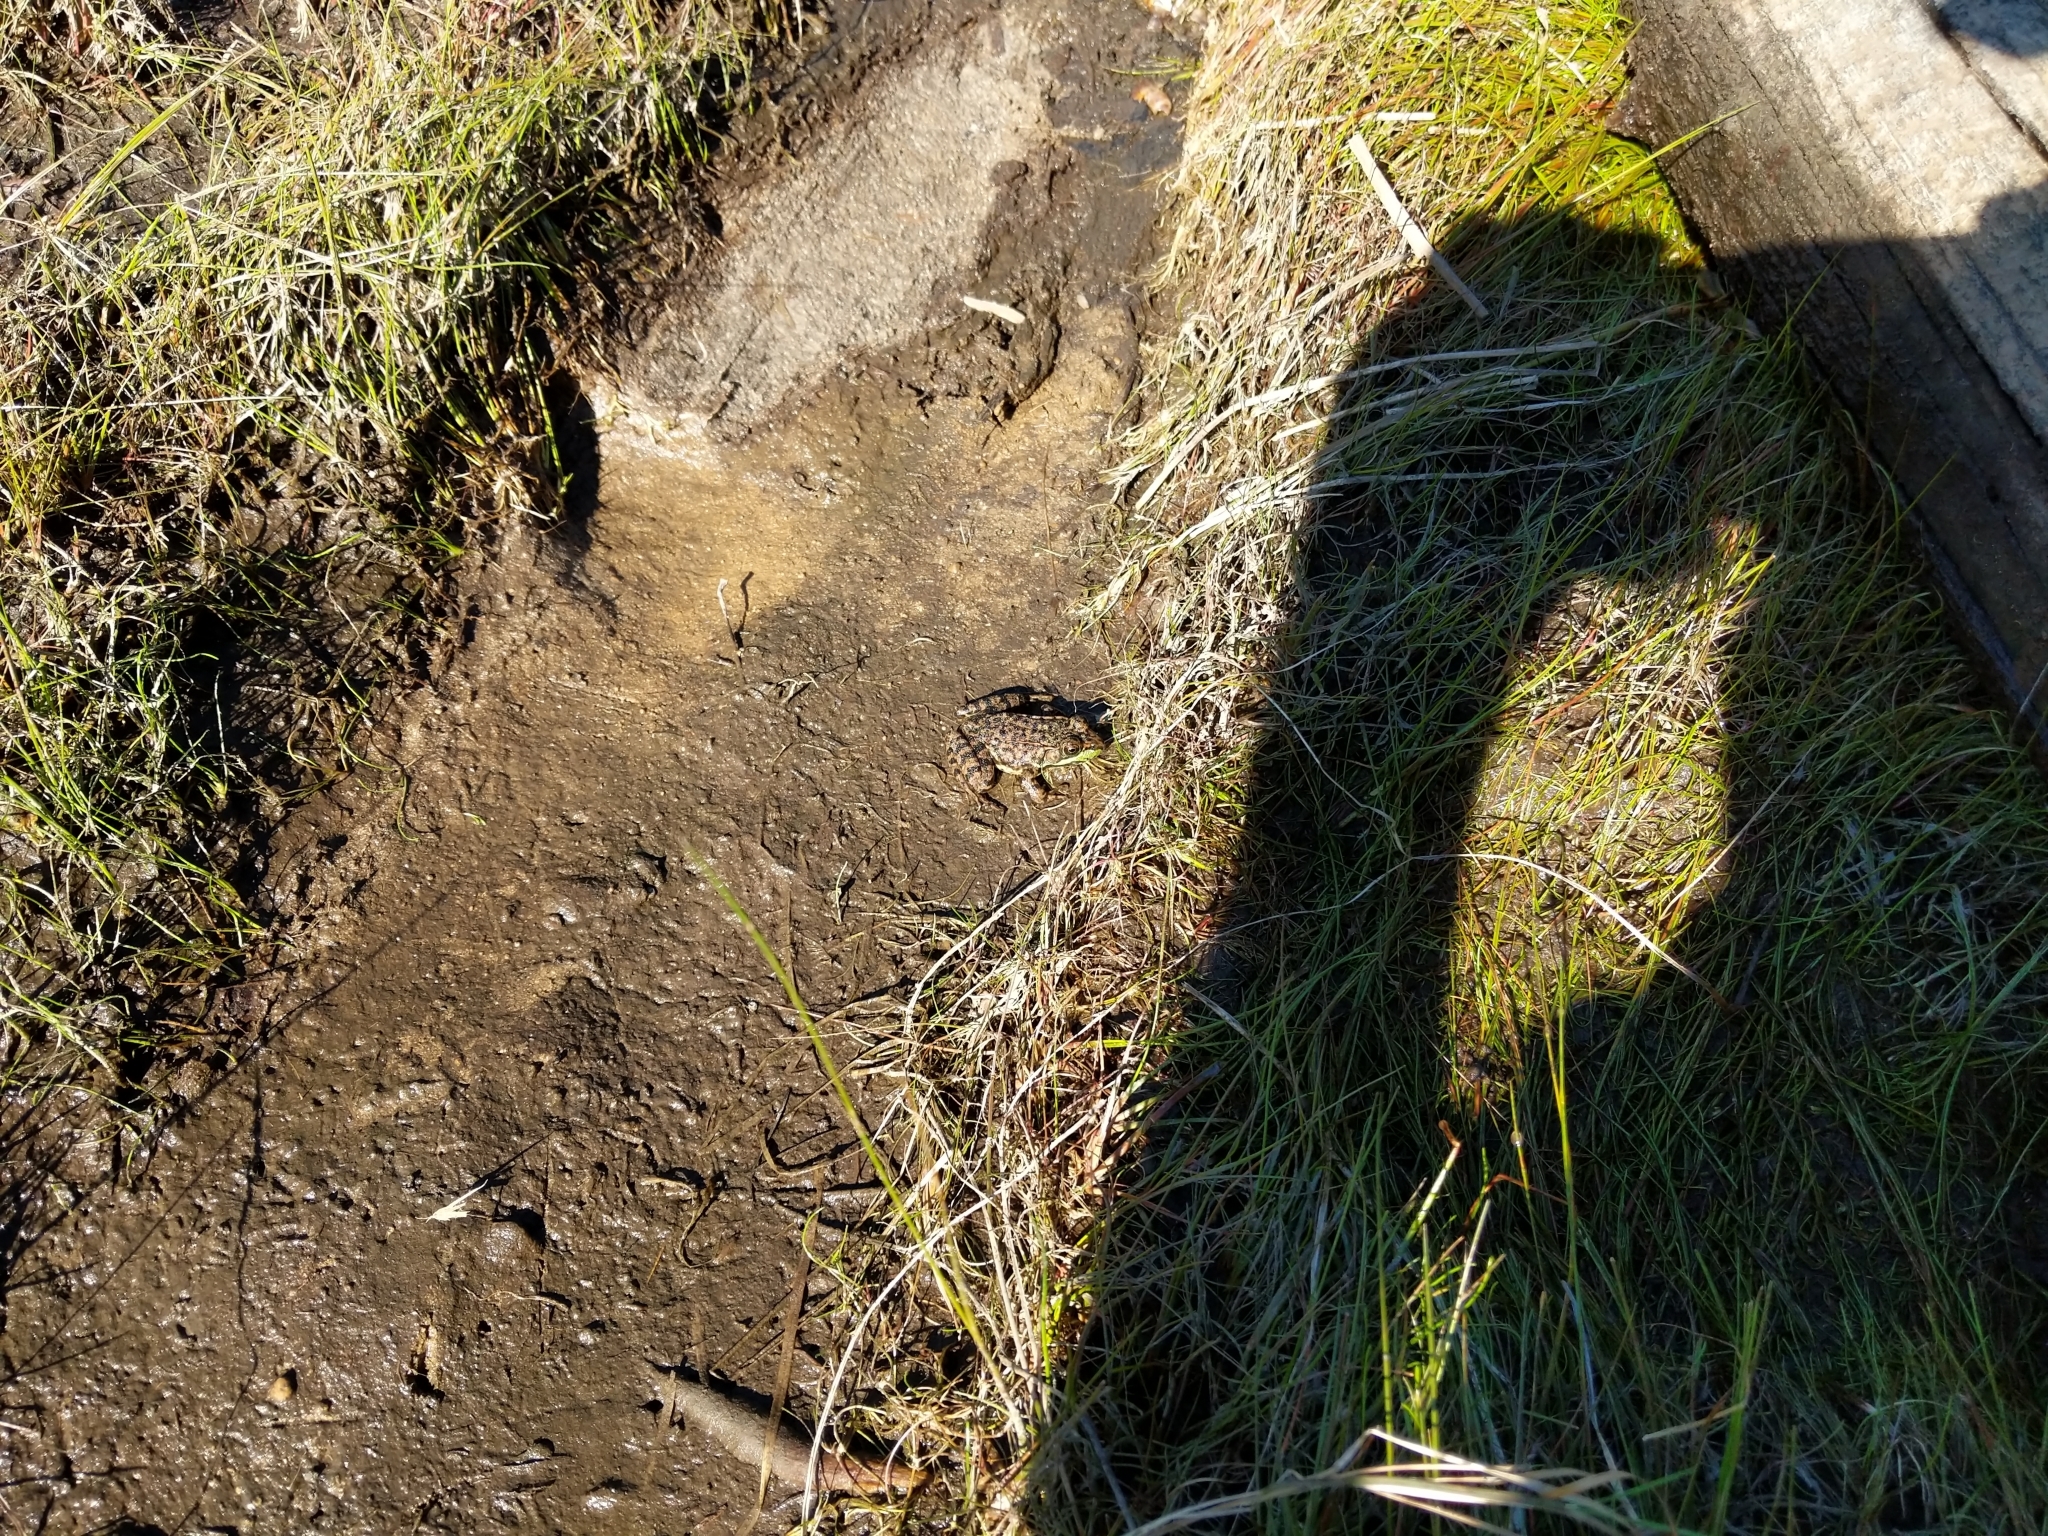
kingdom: Animalia
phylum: Chordata
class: Amphibia
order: Anura
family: Ranidae
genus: Lithobates
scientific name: Lithobates clamitans
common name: Green frog
